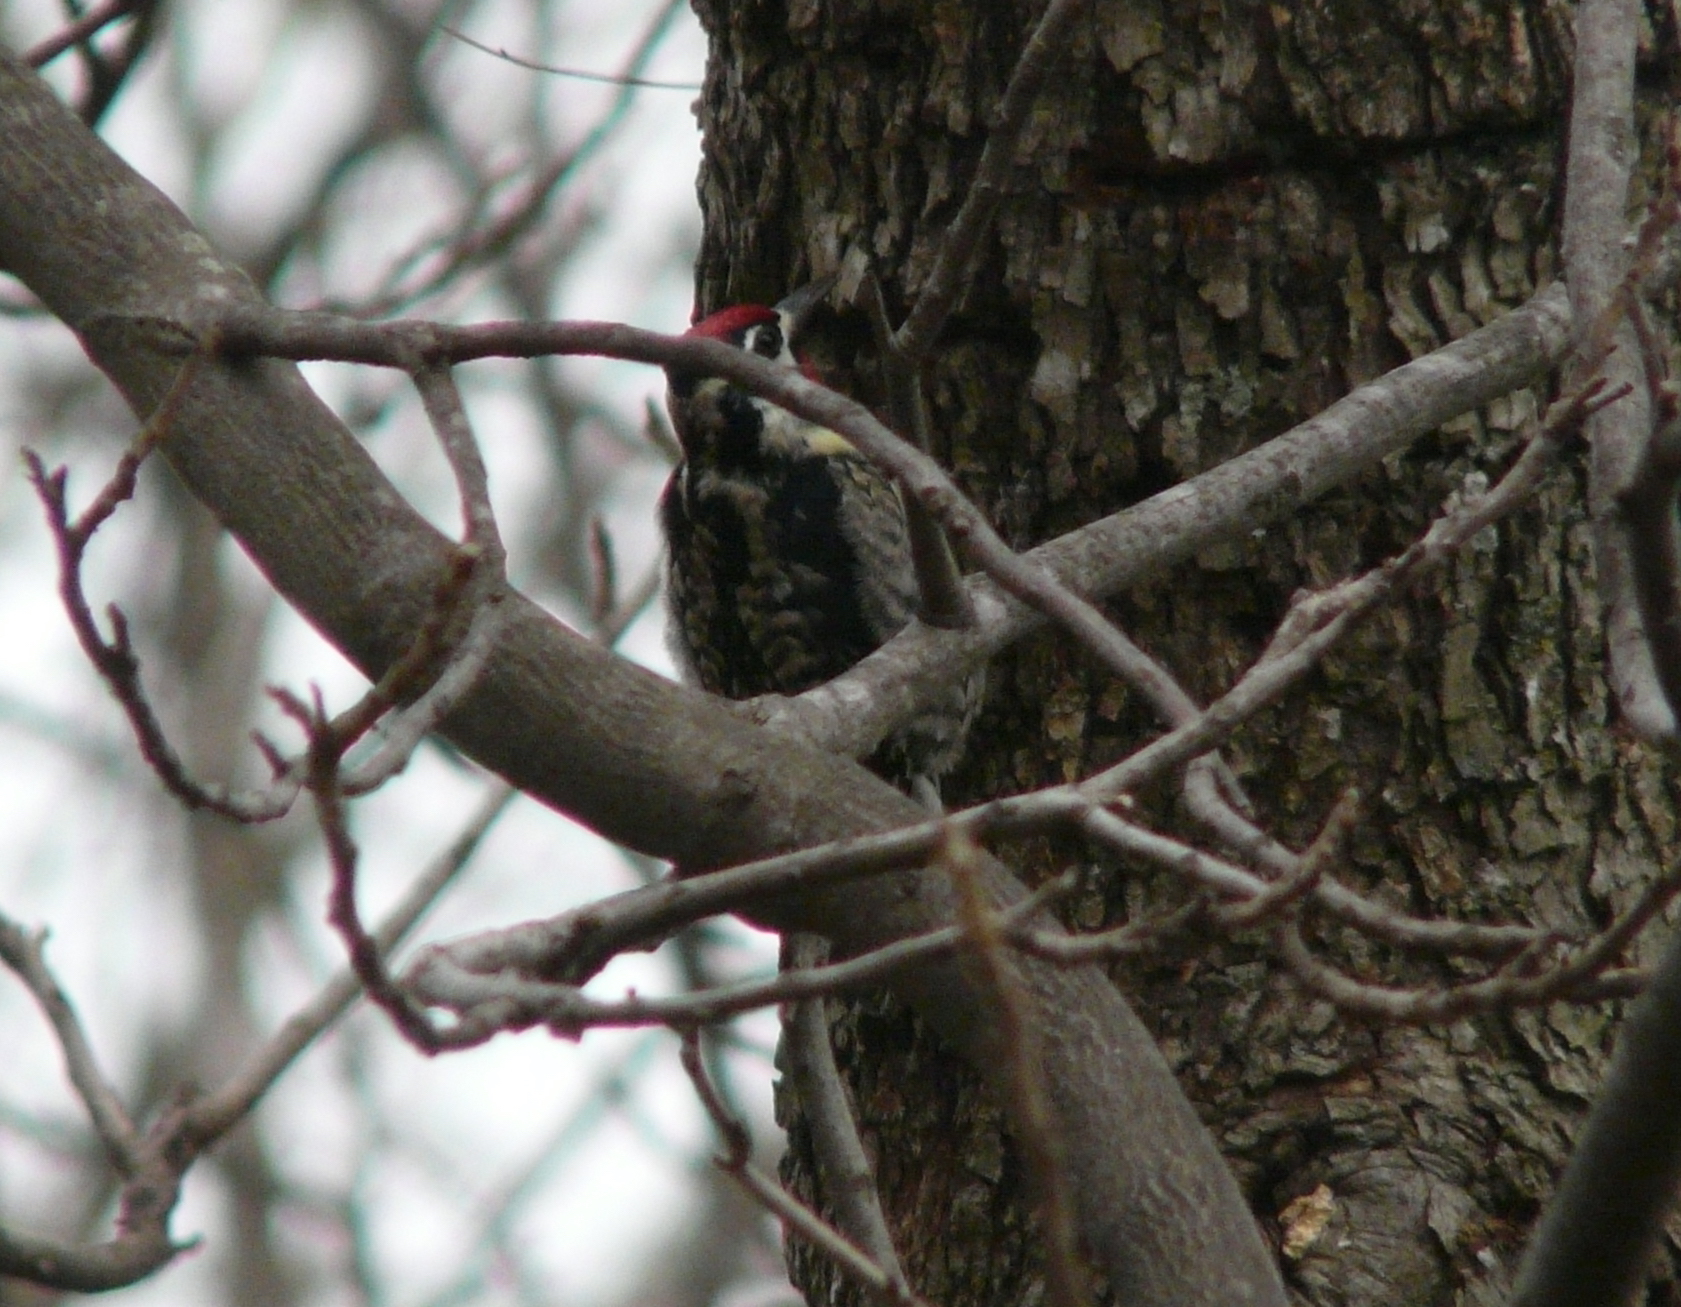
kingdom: Animalia
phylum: Chordata
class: Aves
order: Piciformes
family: Picidae
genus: Sphyrapicus
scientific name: Sphyrapicus varius
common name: Yellow-bellied sapsucker
